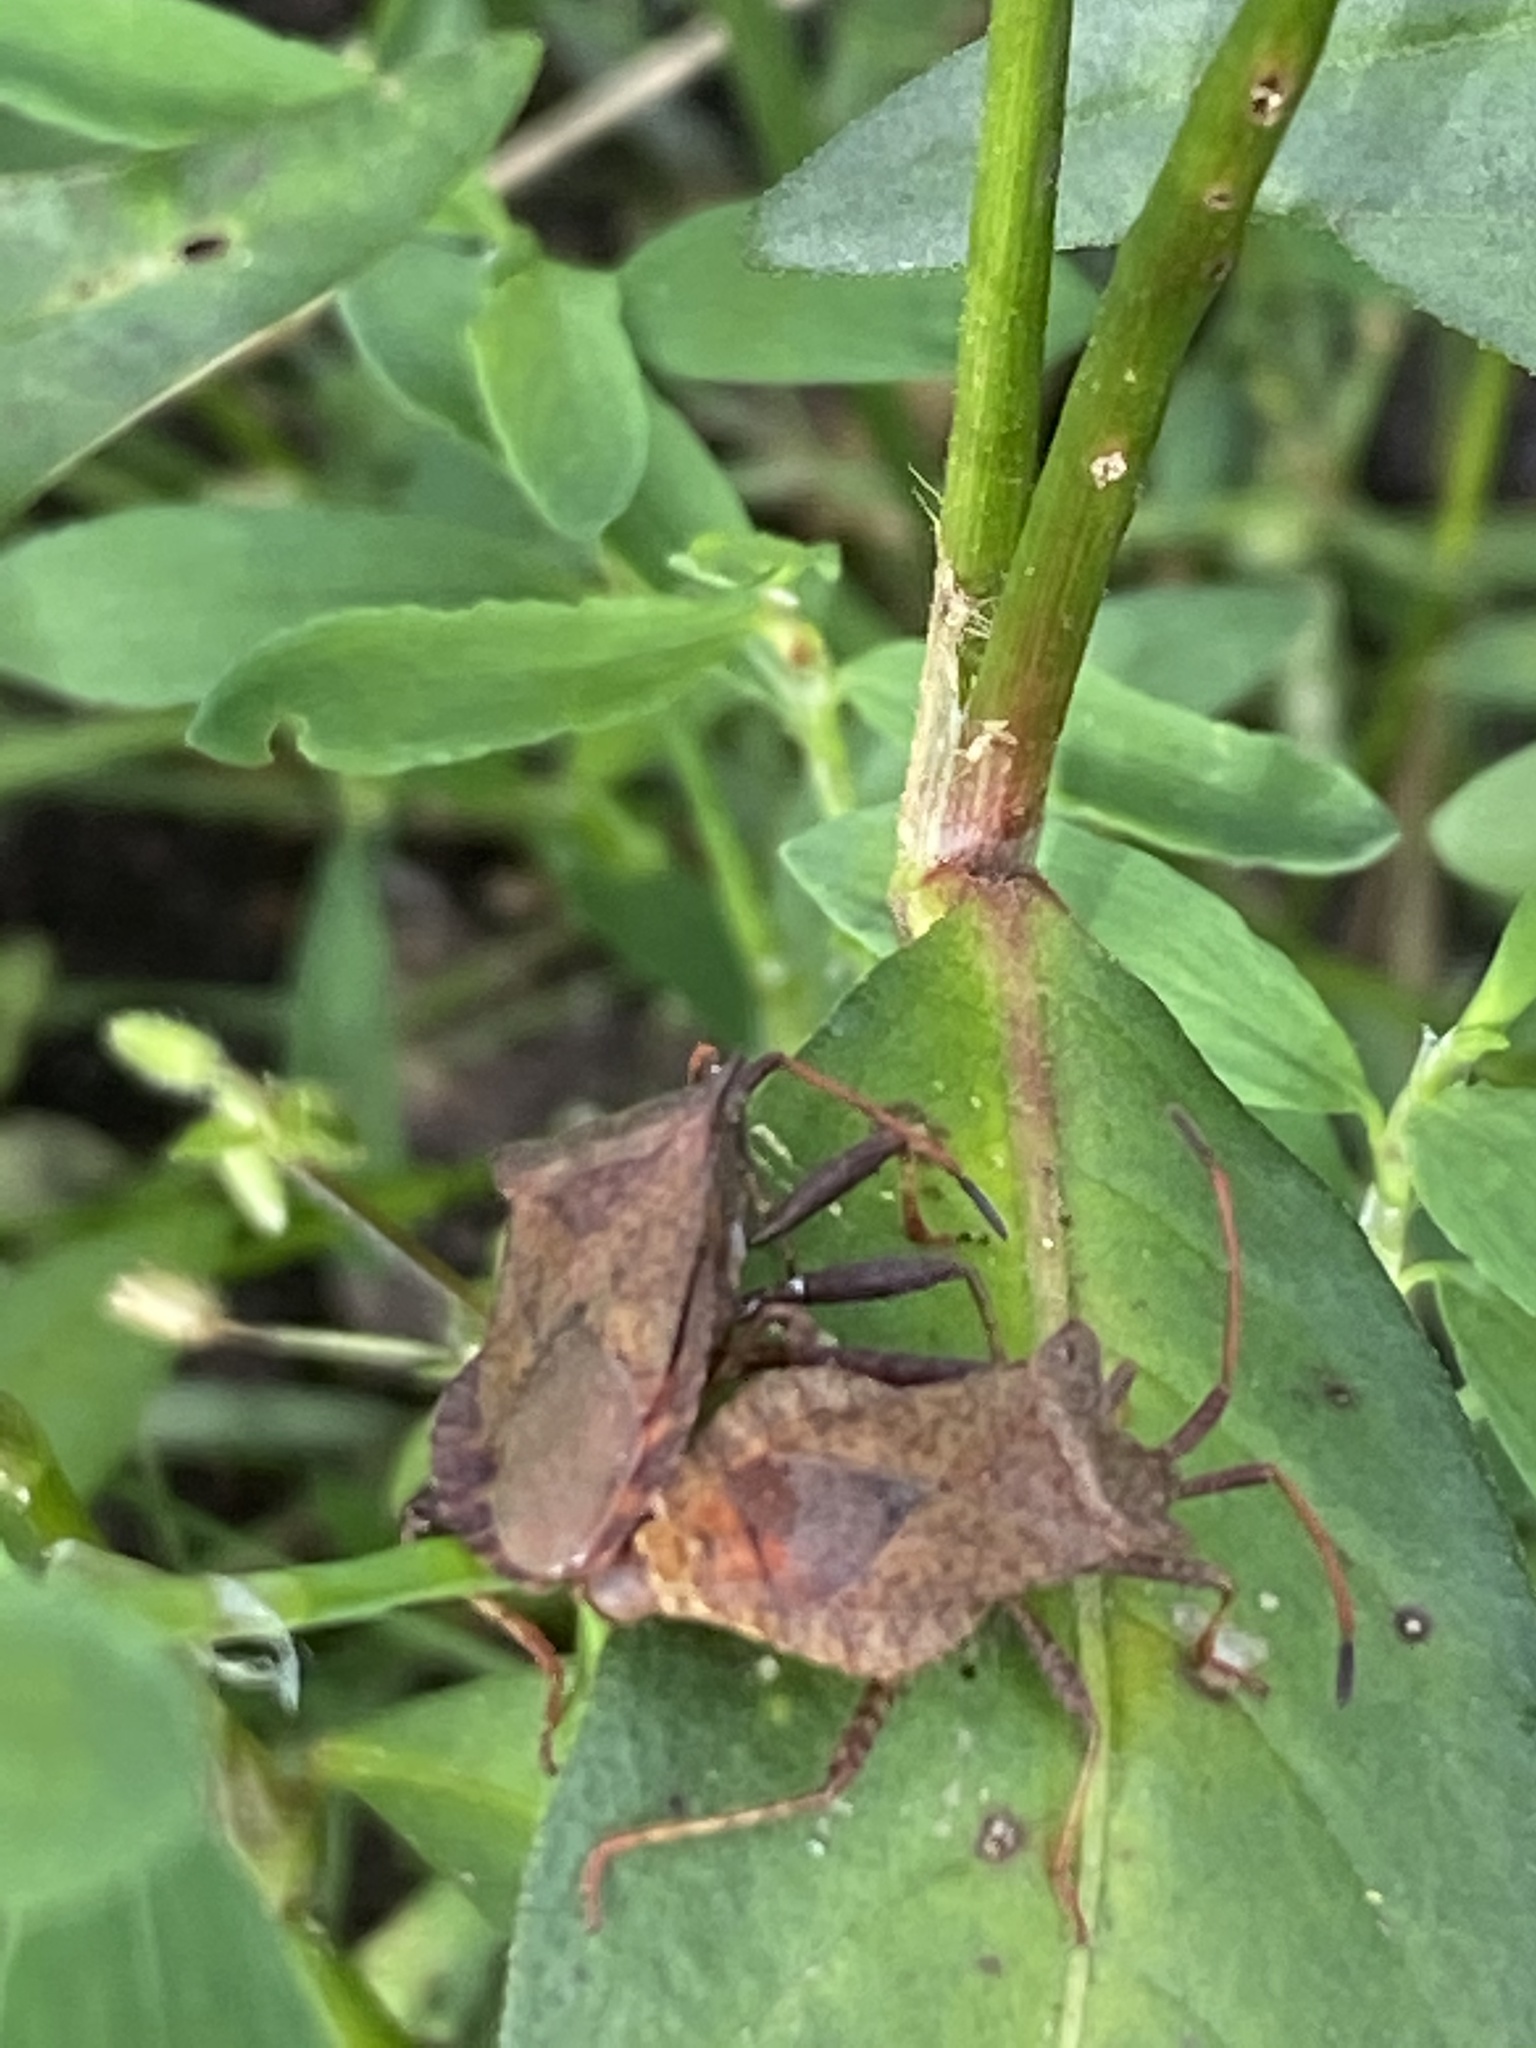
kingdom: Animalia
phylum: Arthropoda
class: Insecta
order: Hemiptera
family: Coreidae
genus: Coreus
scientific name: Coreus marginatus
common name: Dock bug
